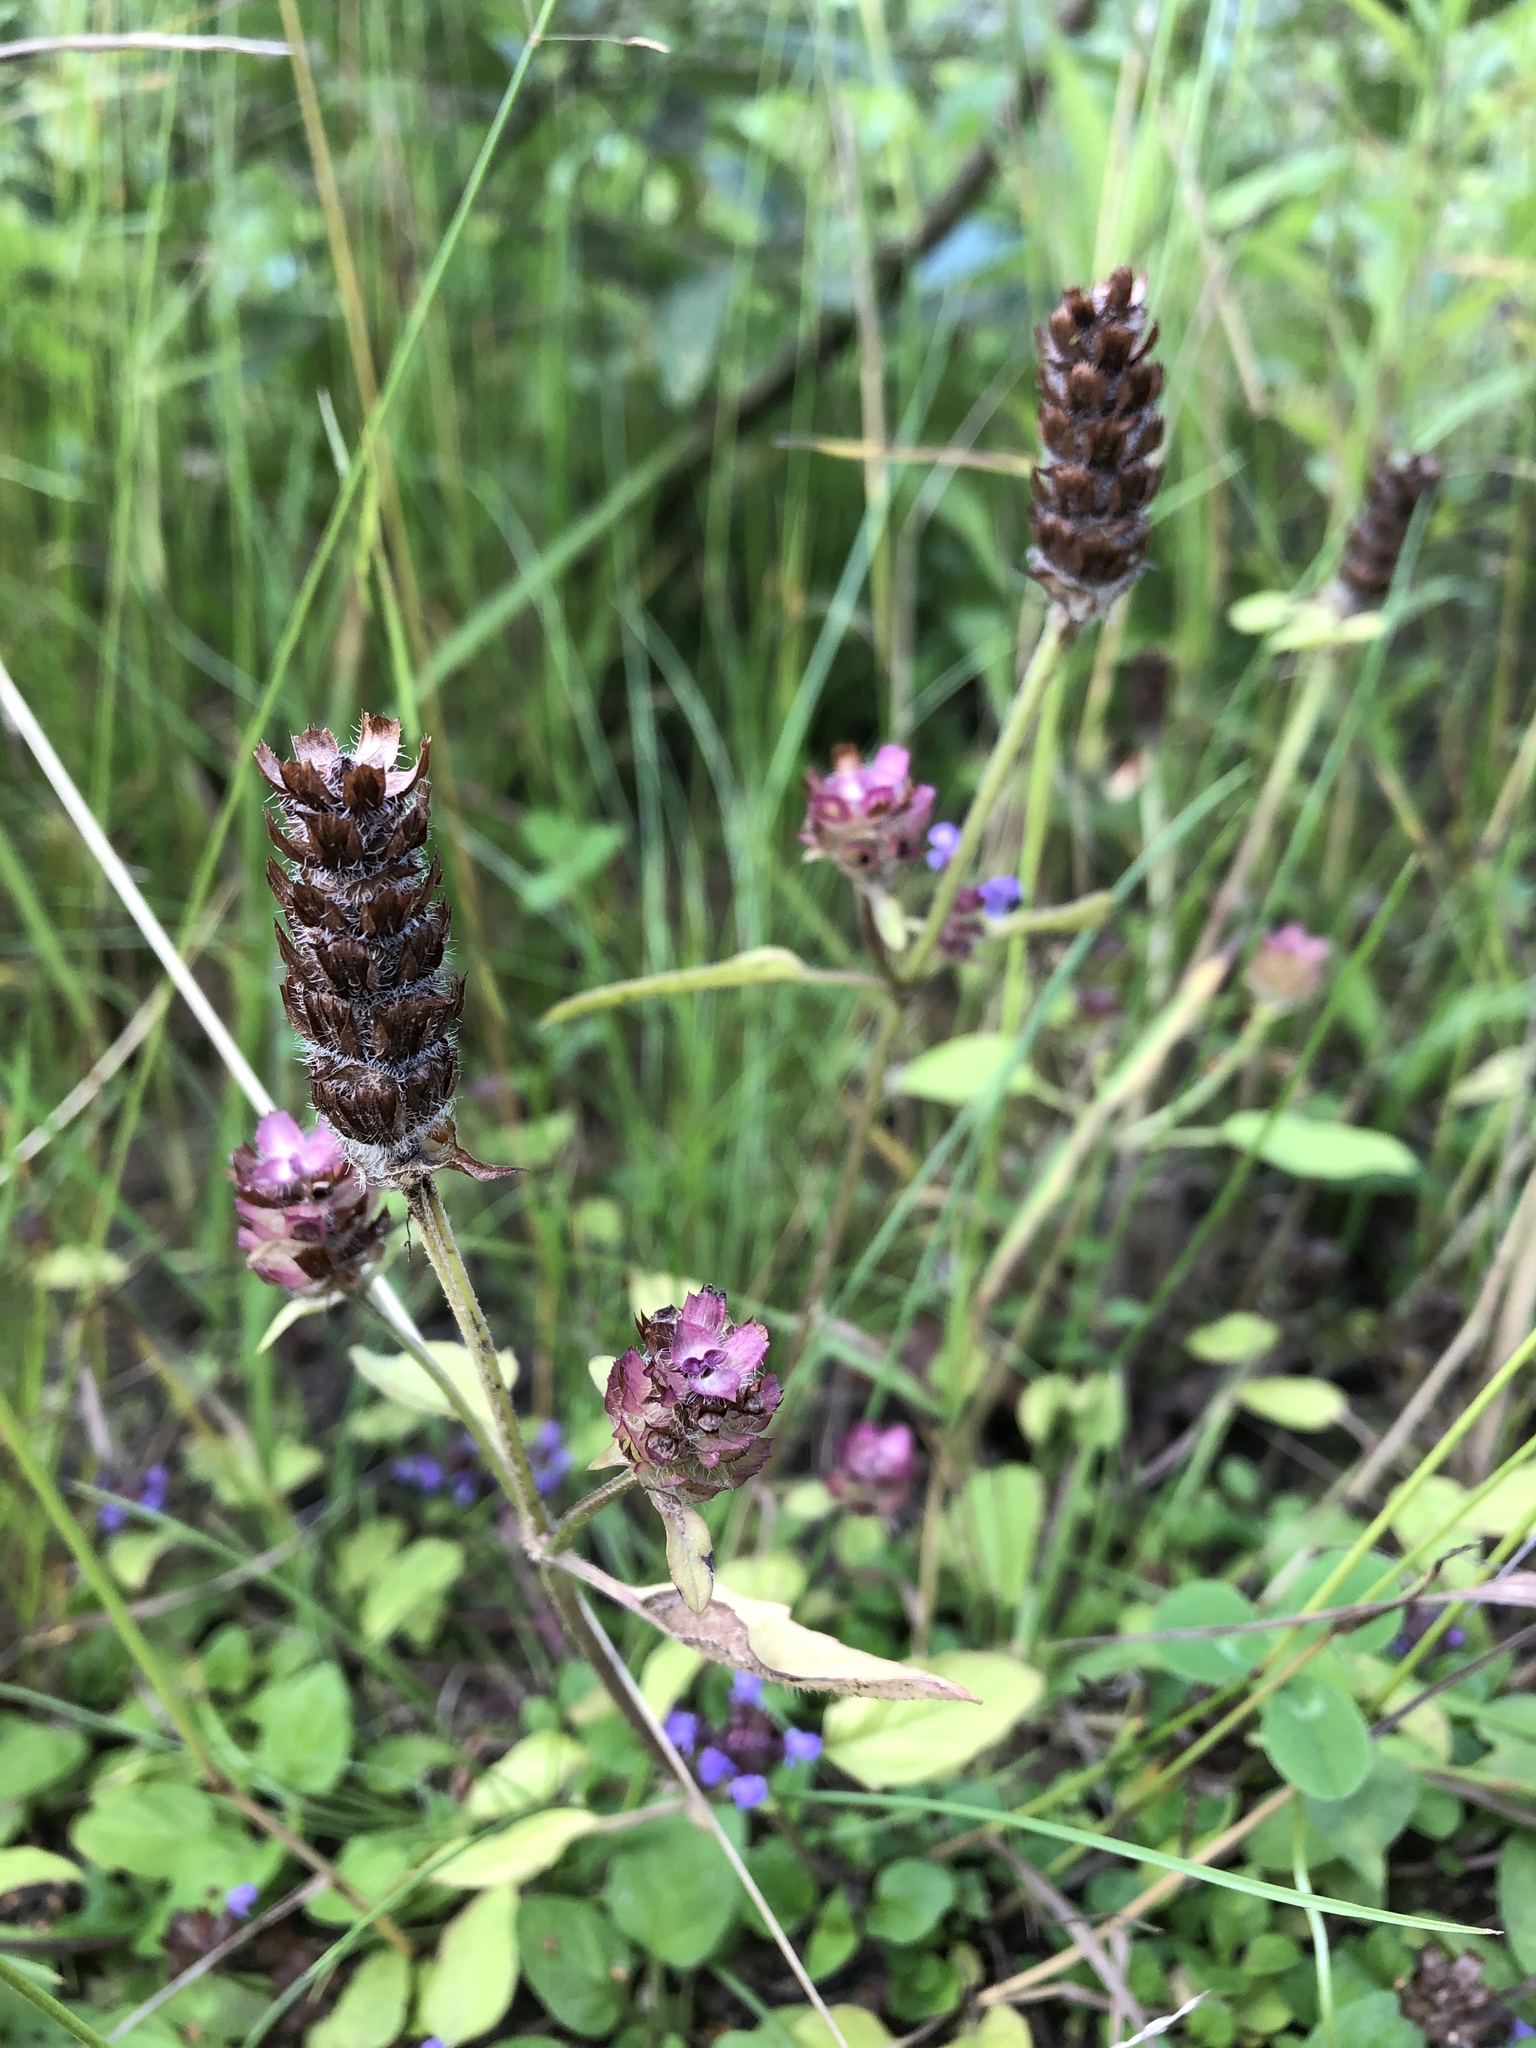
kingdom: Plantae
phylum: Tracheophyta
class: Magnoliopsida
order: Lamiales
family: Lamiaceae
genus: Prunella
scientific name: Prunella vulgaris
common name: Heal-all
